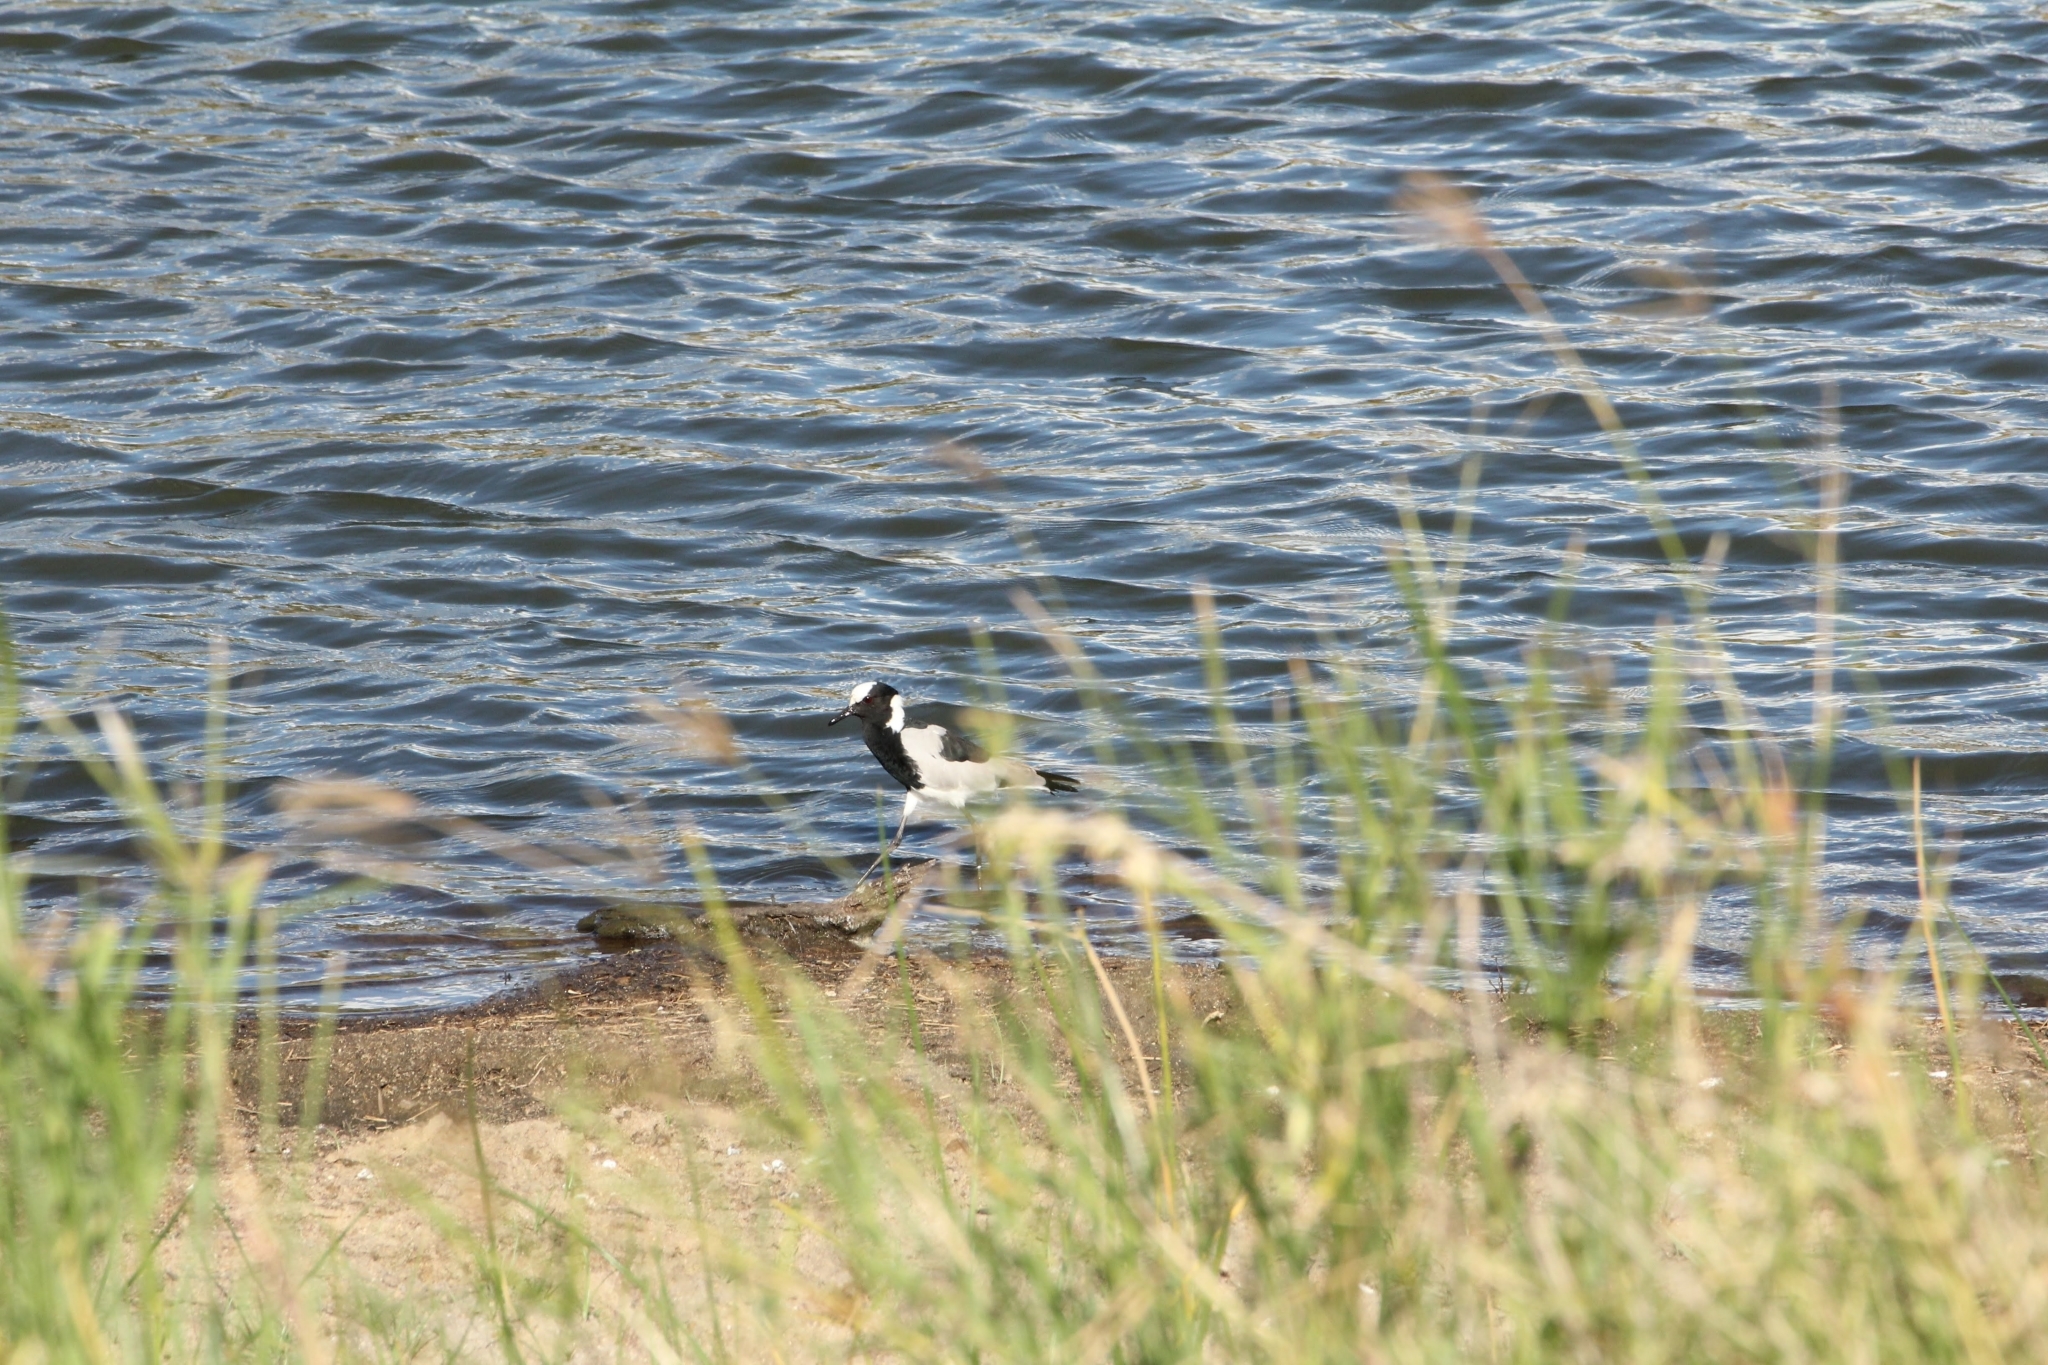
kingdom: Animalia
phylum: Chordata
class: Aves
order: Charadriiformes
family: Charadriidae
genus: Vanellus
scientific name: Vanellus armatus
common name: Blacksmith lapwing
